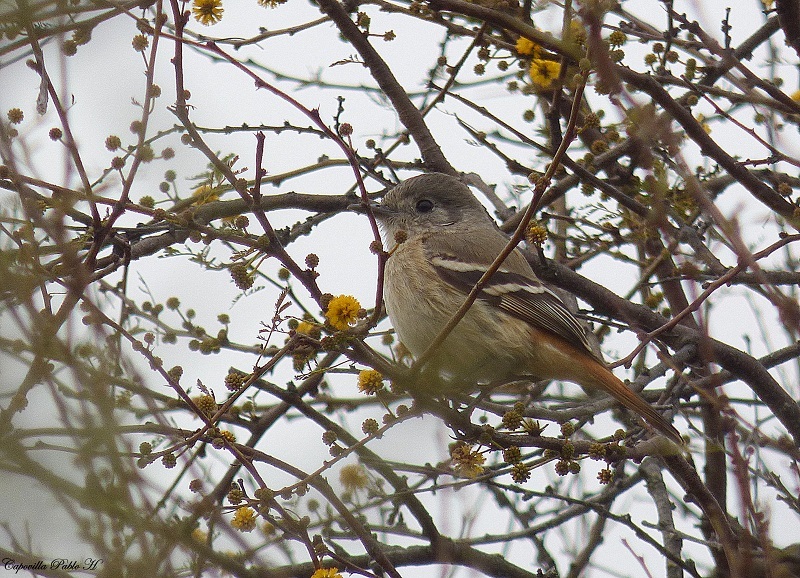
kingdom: Animalia
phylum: Chordata
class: Aves
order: Passeriformes
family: Tyrannidae
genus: Knipolegus
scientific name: Knipolegus aterrimus
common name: White-winged black tyrant
